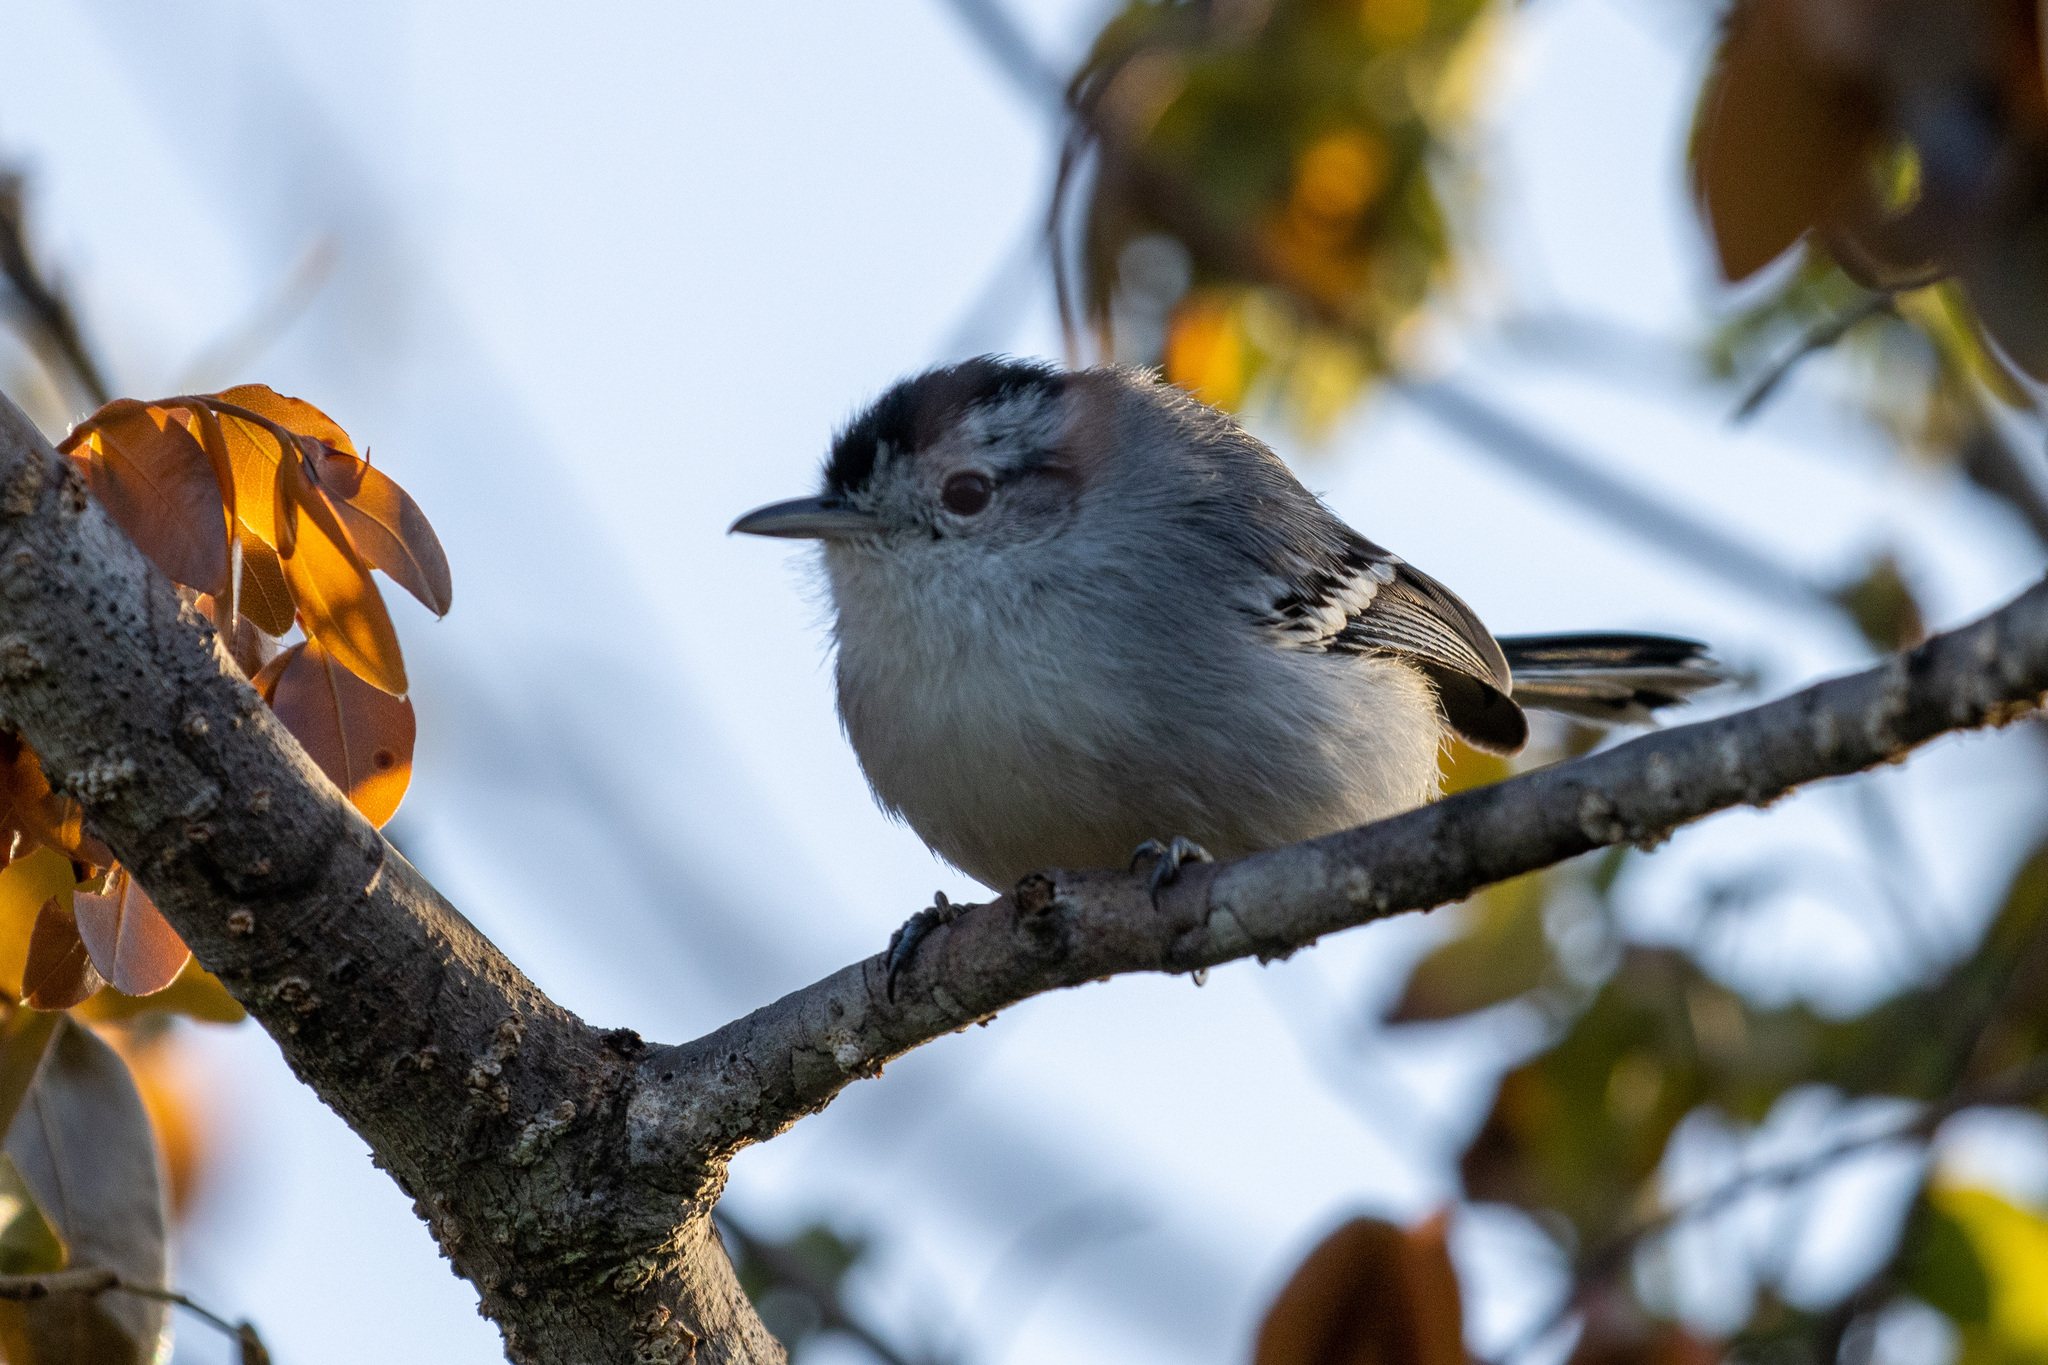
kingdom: Animalia
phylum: Chordata
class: Aves
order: Passeriformes
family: Thamnophilidae
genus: Herpsilochmus
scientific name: Herpsilochmus sellowi
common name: Caatinga antwren
